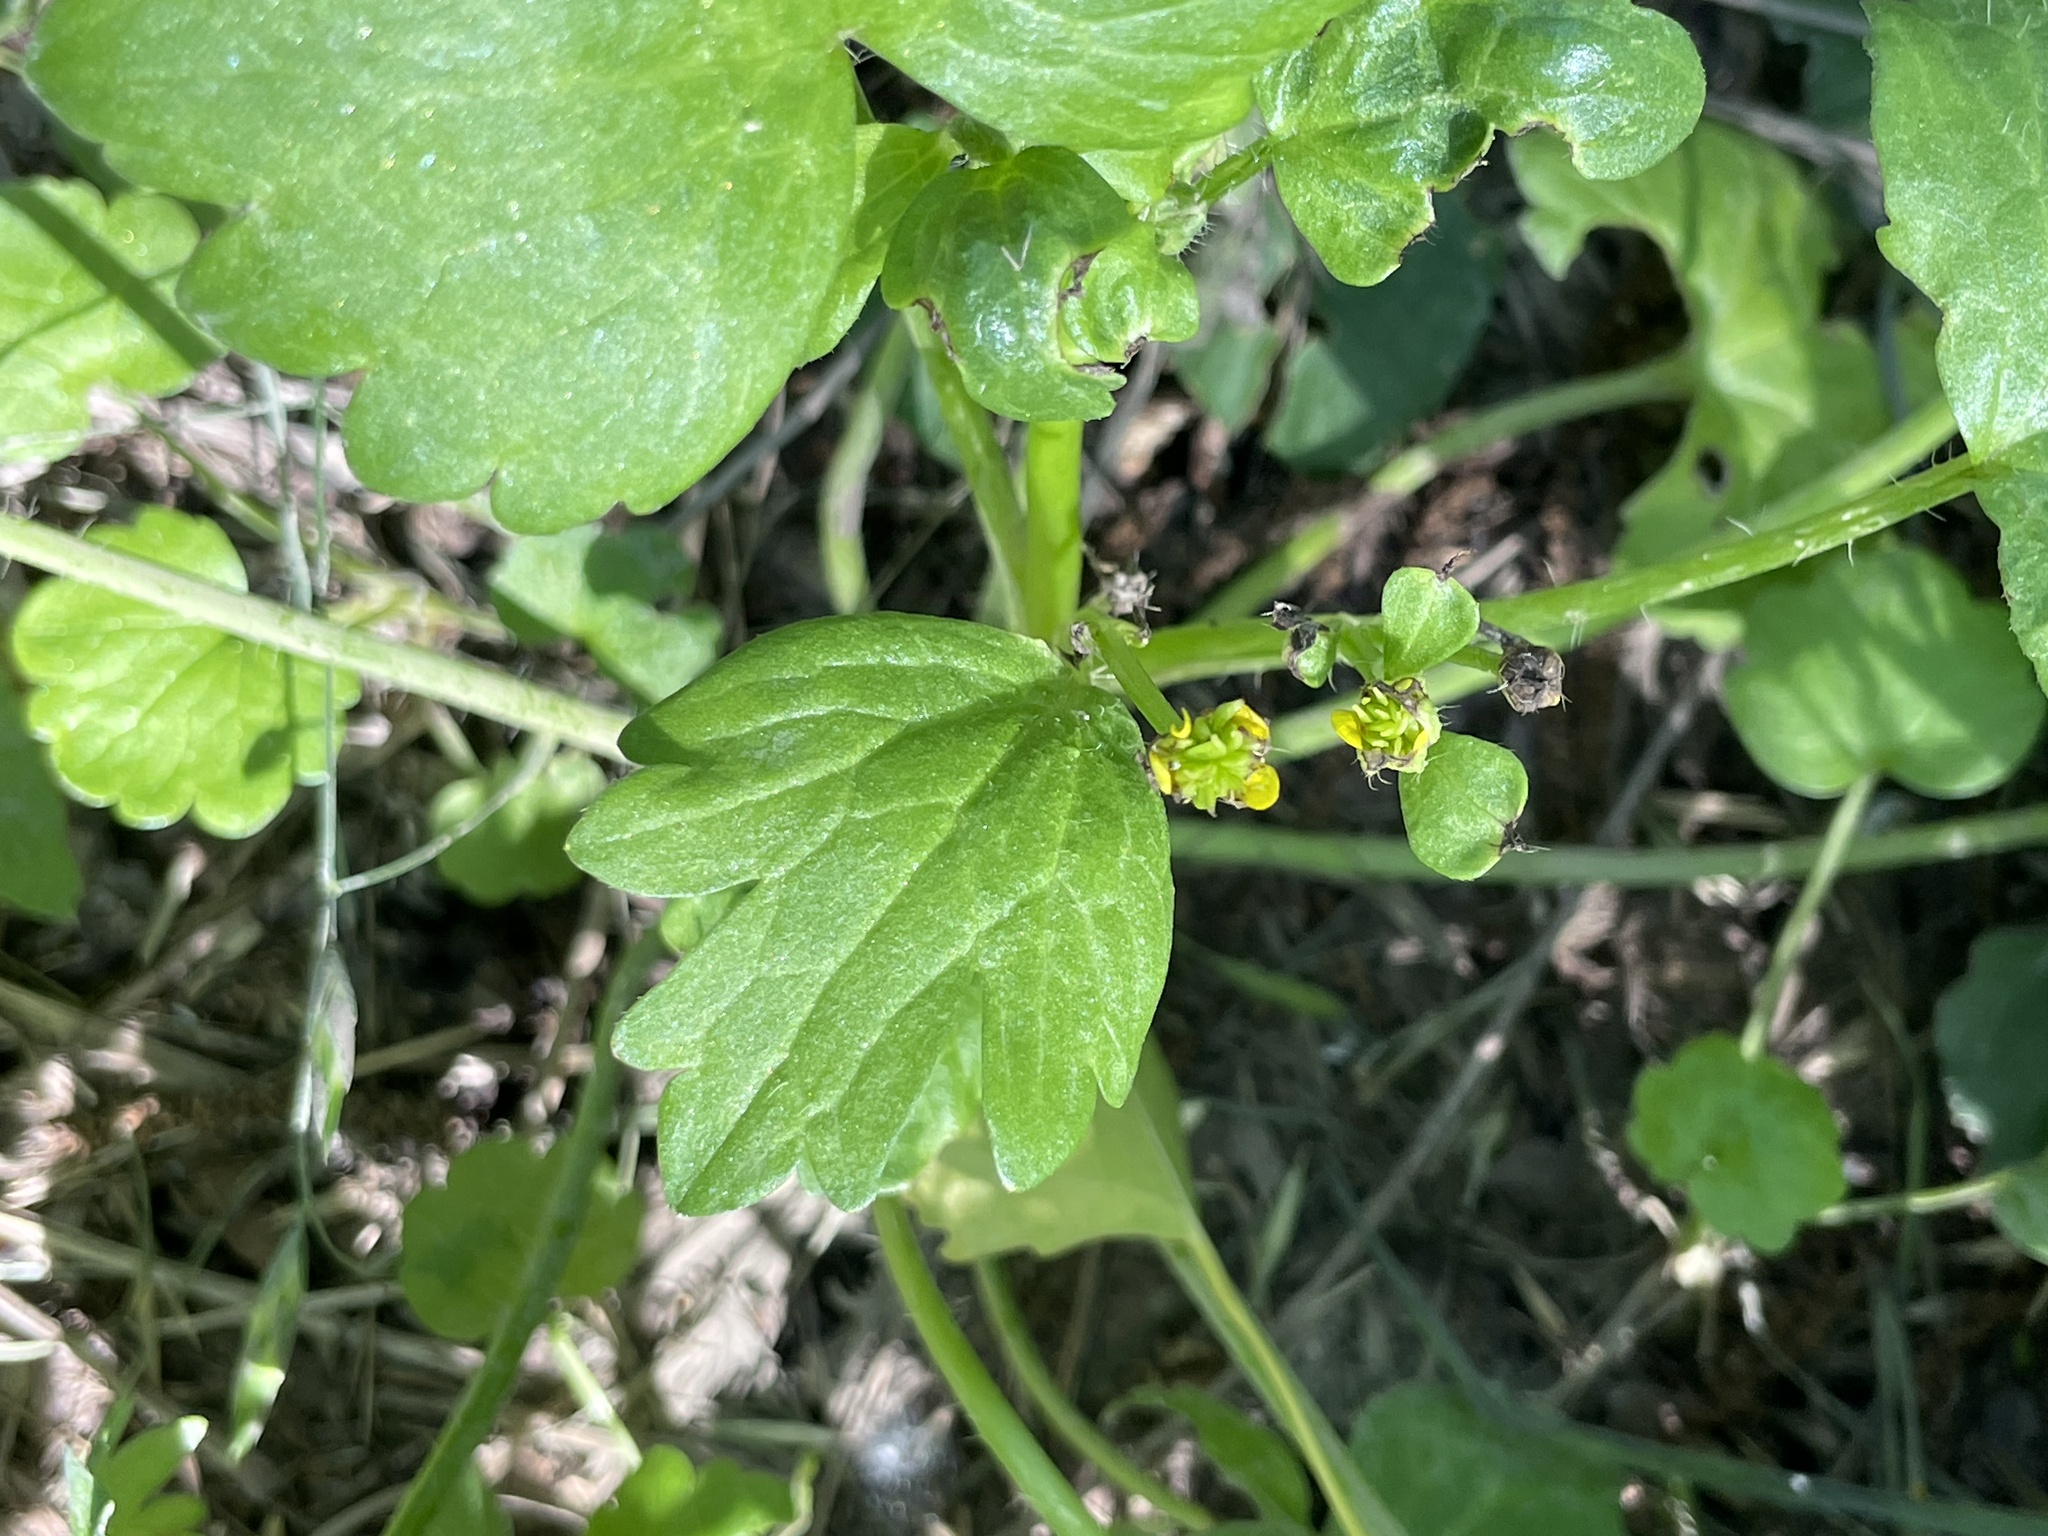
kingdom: Plantae
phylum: Tracheophyta
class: Magnoliopsida
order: Ranunculales
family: Ranunculaceae
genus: Ranunculus
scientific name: Ranunculus muricatus
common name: Rough-fruited buttercup
